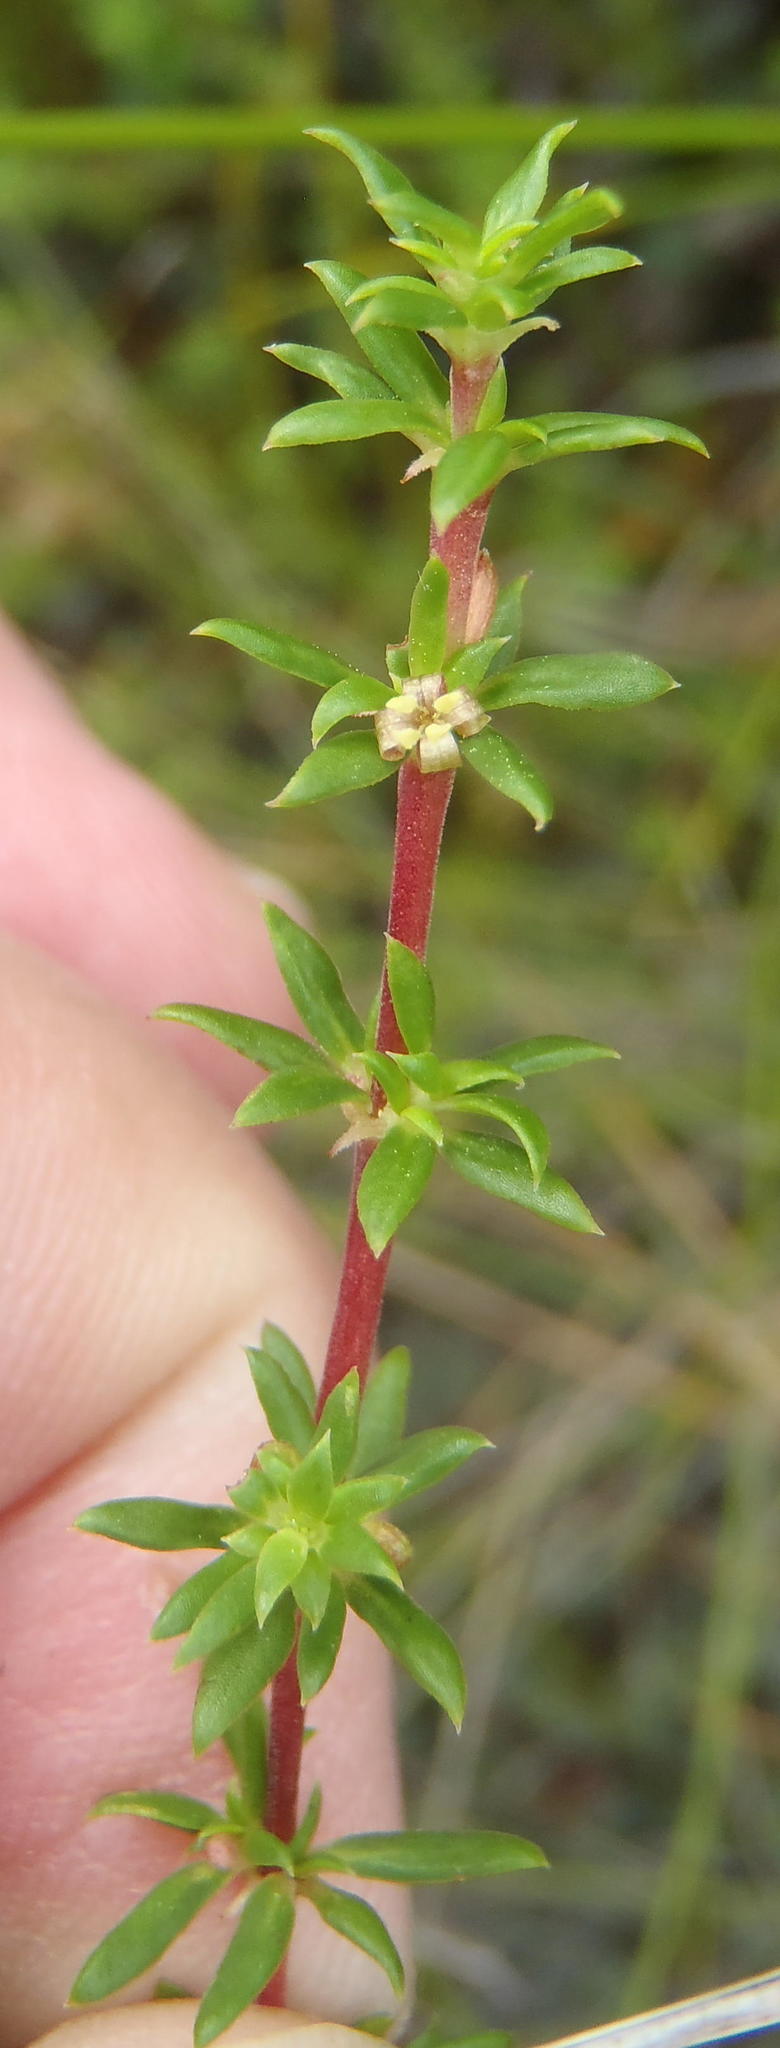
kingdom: Plantae
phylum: Tracheophyta
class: Magnoliopsida
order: Gentianales
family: Rubiaceae
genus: Anthospermum
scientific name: Anthospermum spathulatum
